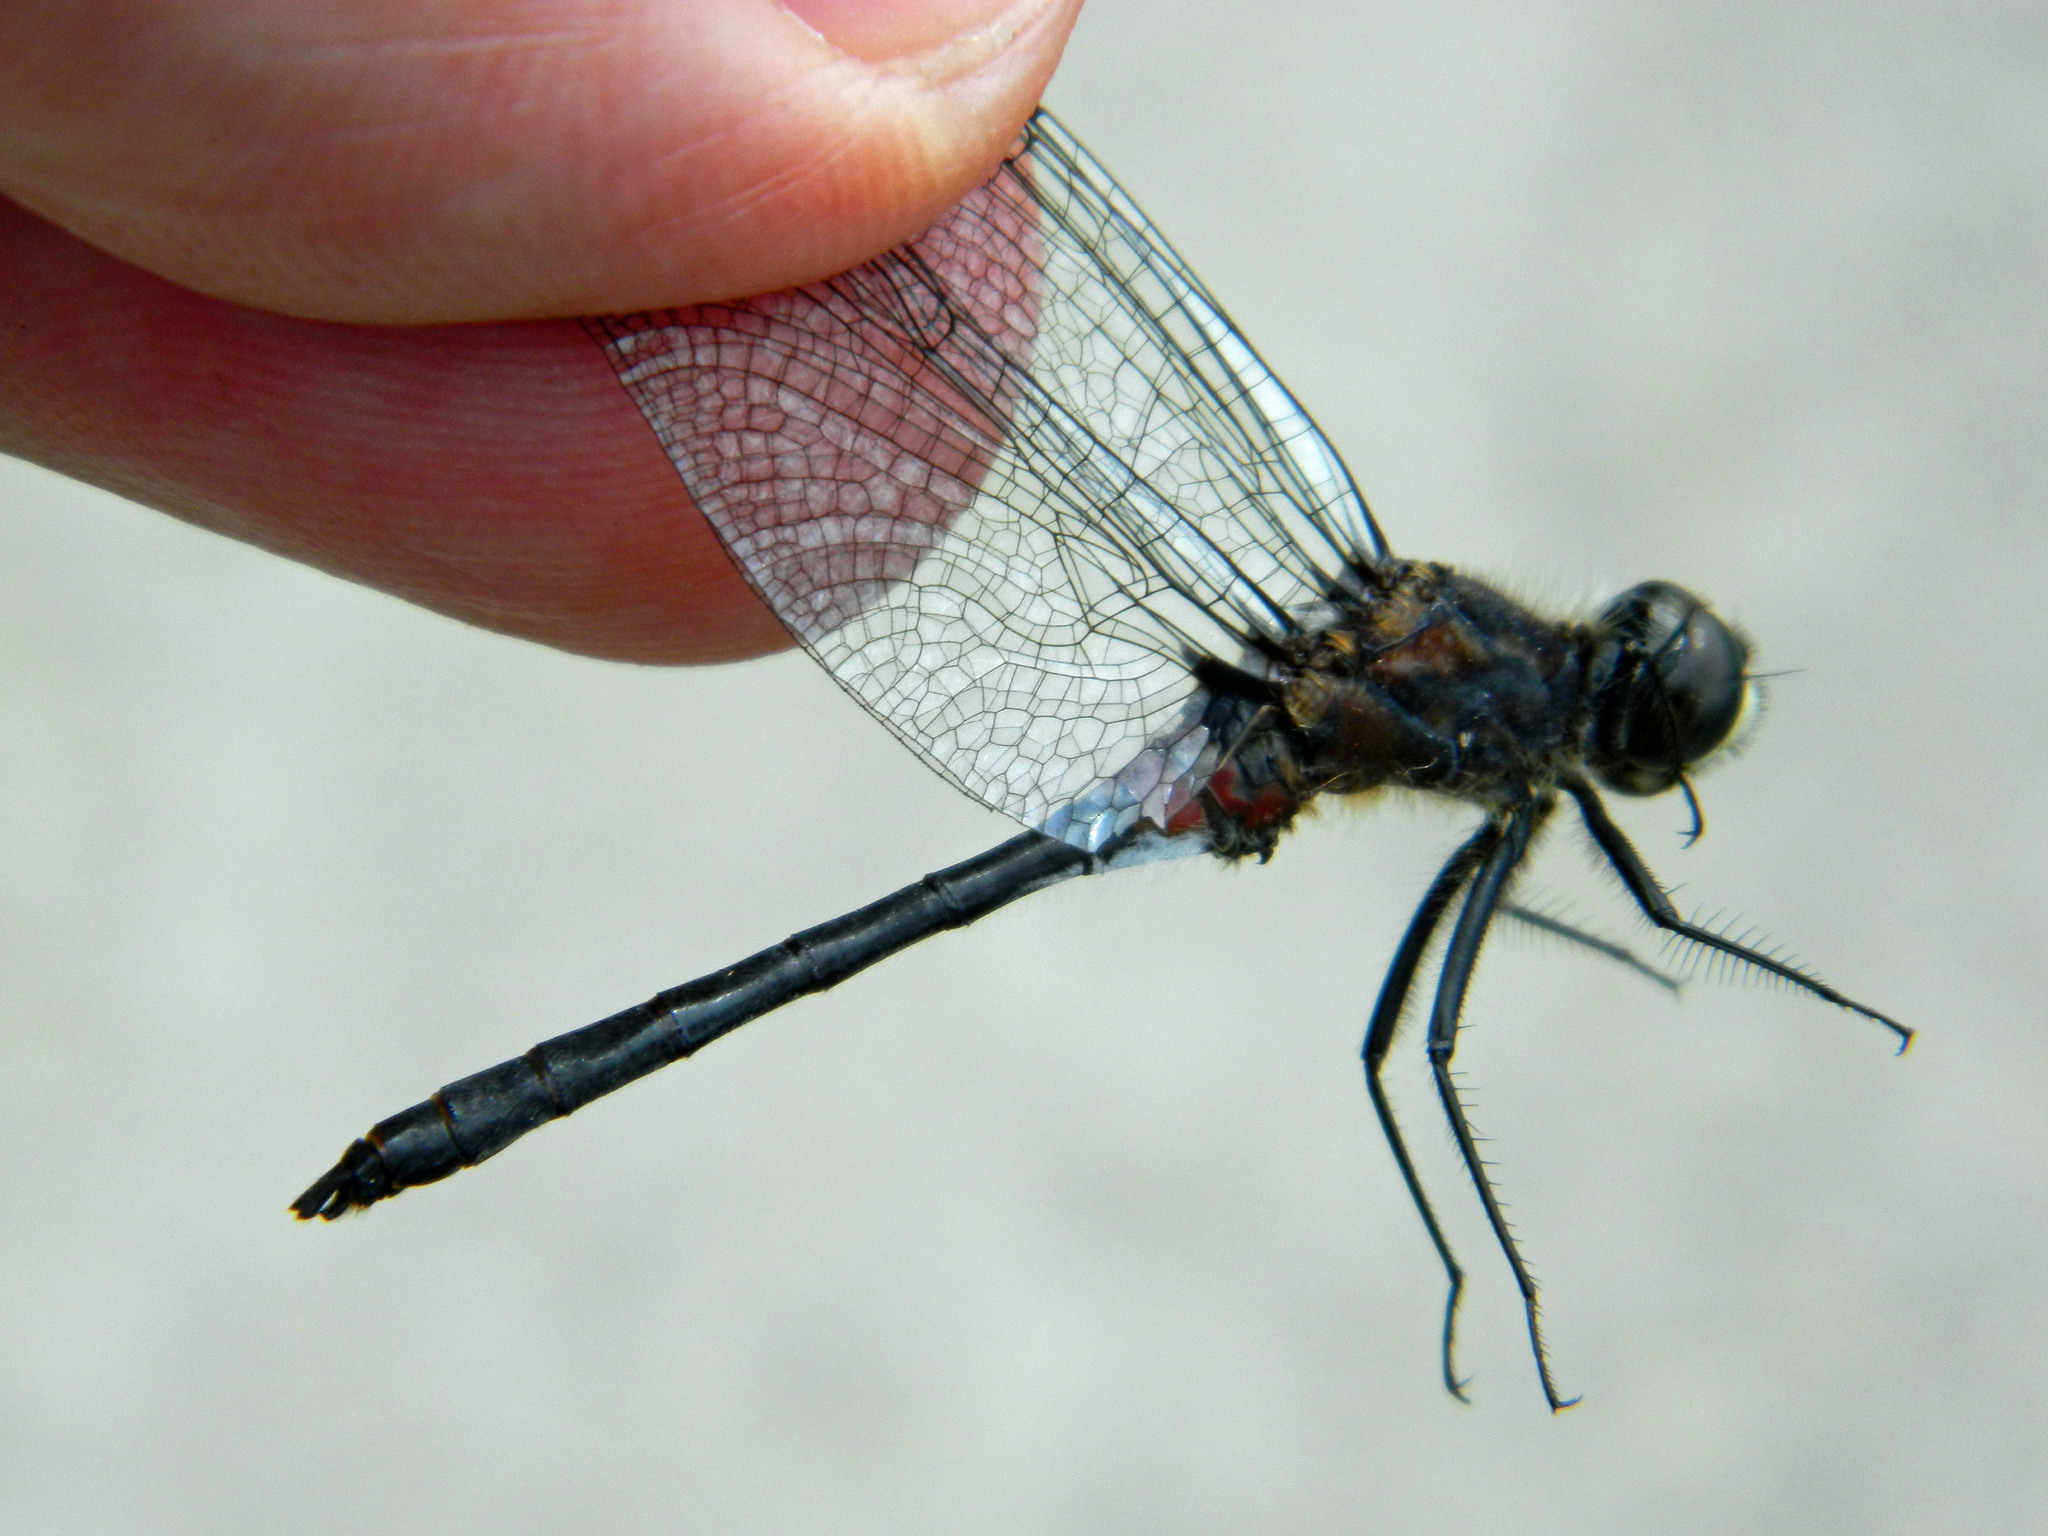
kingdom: Animalia
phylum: Arthropoda
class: Insecta
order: Odonata
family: Libellulidae
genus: Leucorrhinia
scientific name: Leucorrhinia proxima
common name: Belted whiteface
